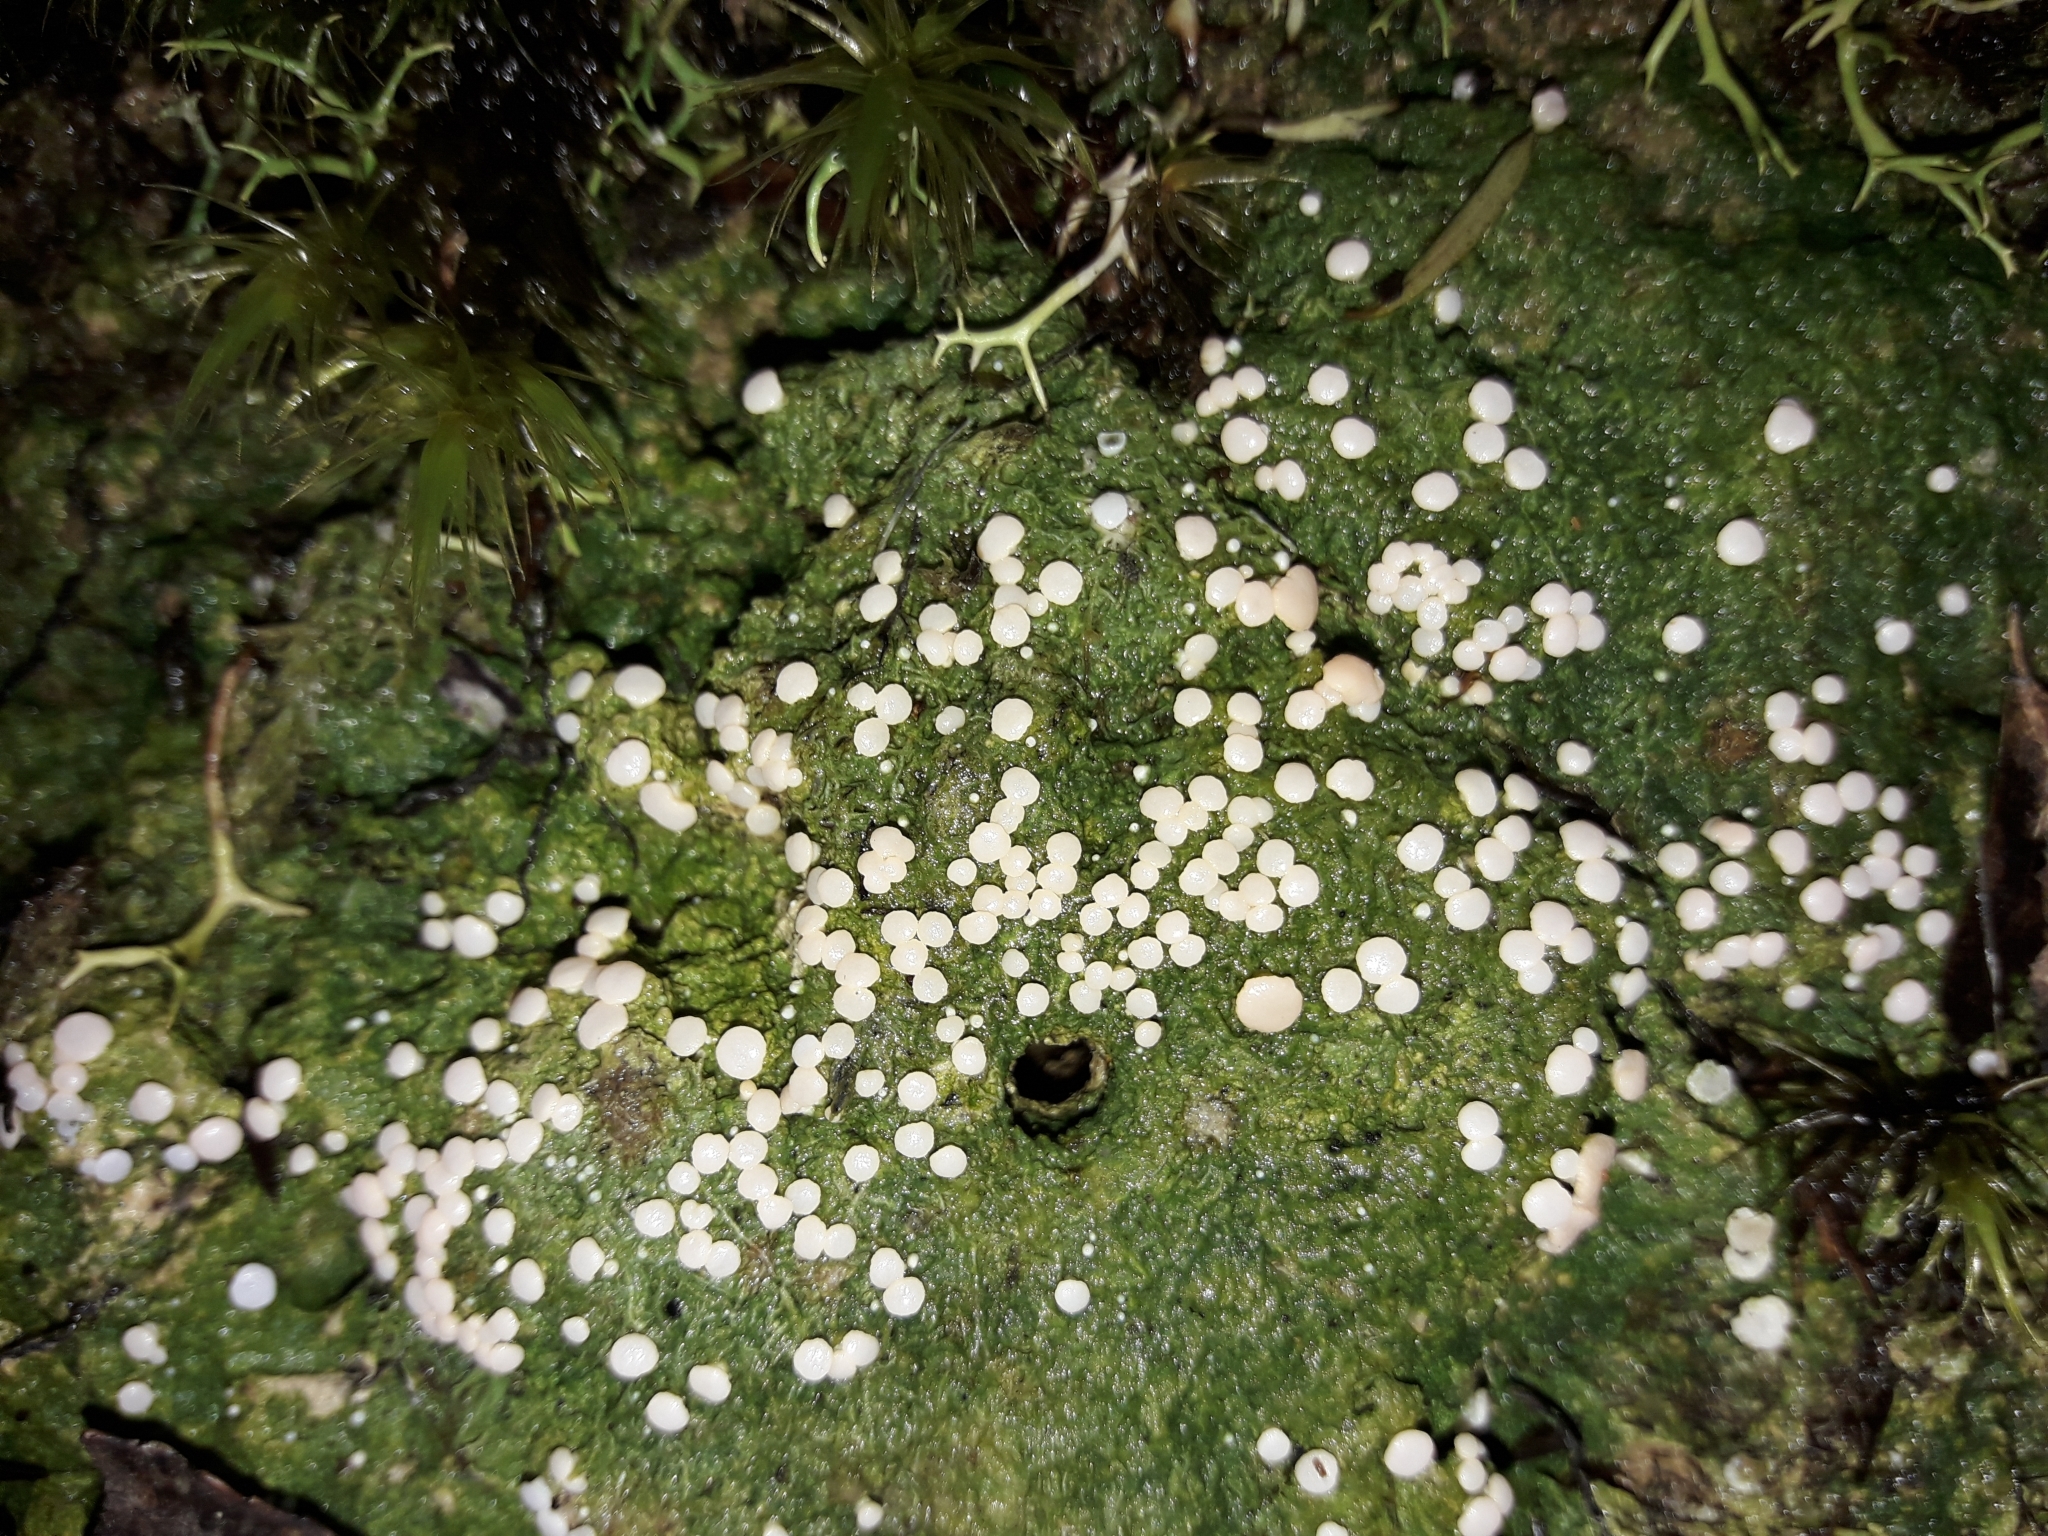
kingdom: Fungi
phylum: Ascomycota
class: Lecanoromycetes
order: Pertusariales
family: Icmadophilaceae
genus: Dibaeis
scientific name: Dibaeis absoluta
